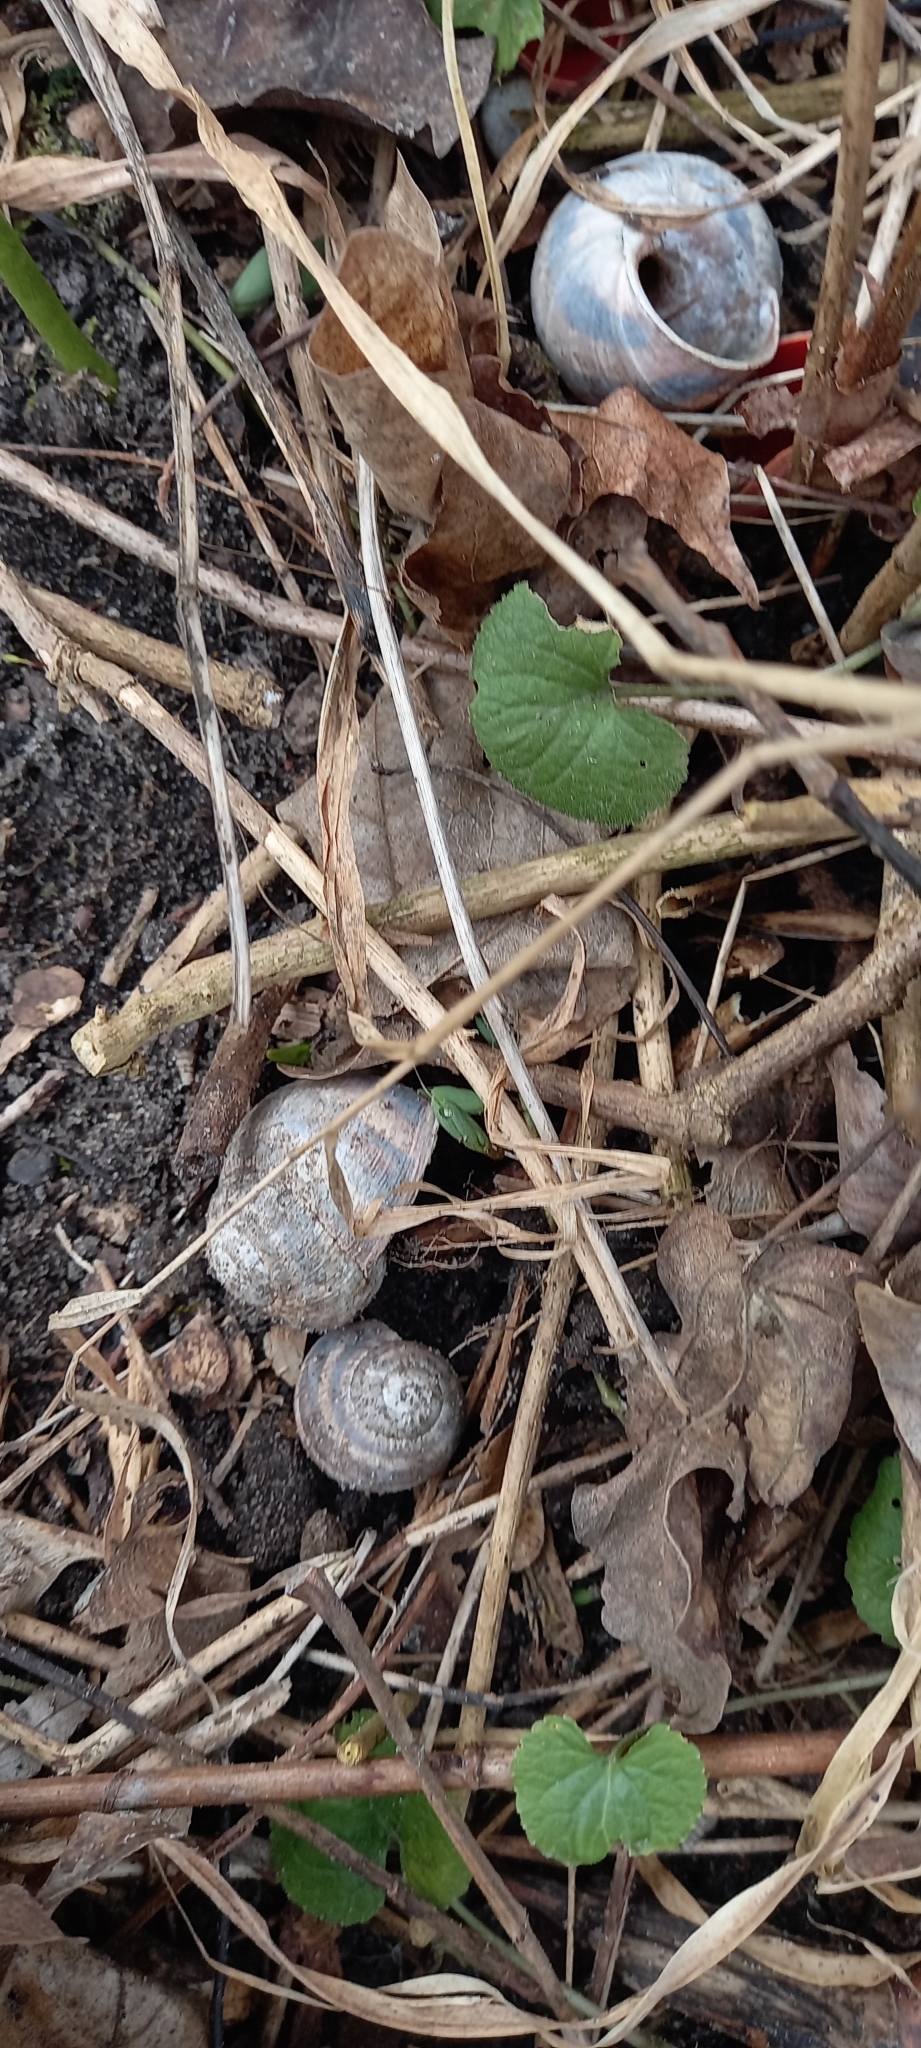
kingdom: Animalia
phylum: Mollusca
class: Gastropoda
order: Stylommatophora
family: Helicidae
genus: Helix
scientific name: Helix albescens
